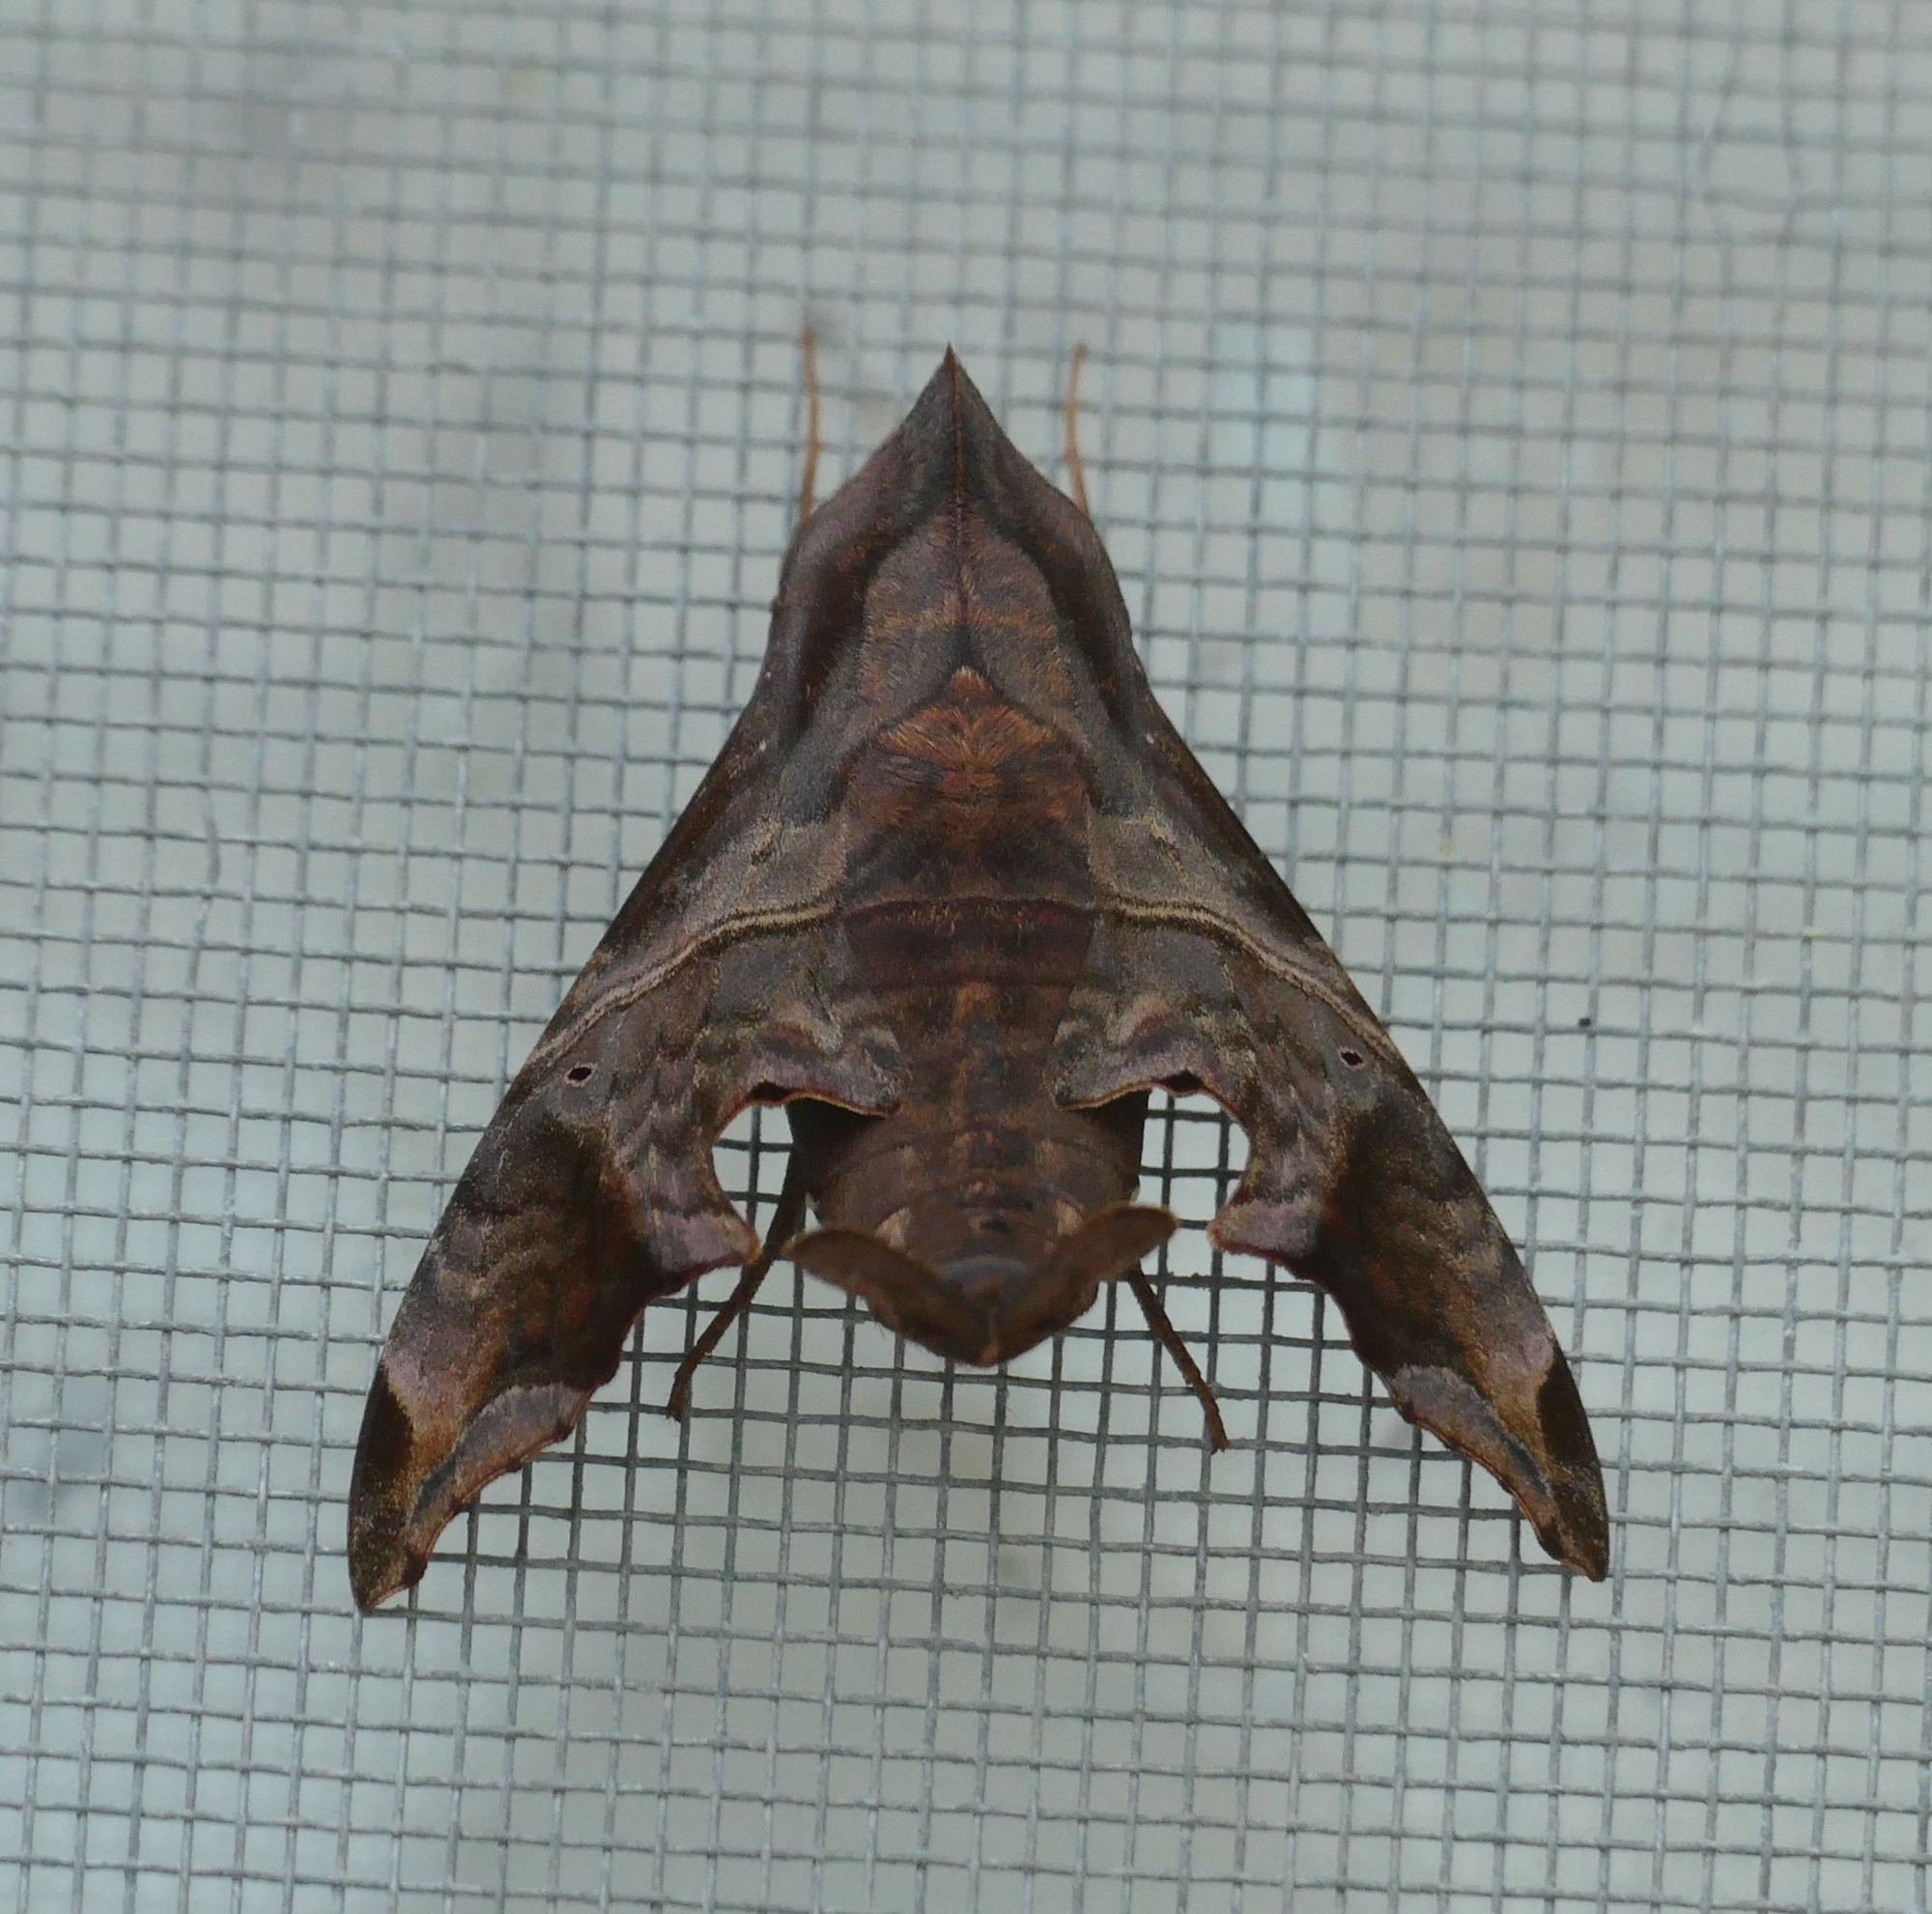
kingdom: Animalia
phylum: Arthropoda
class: Insecta
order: Lepidoptera
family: Sphingidae
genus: Enyo
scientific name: Enyo lugubris
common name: Mournful sphinx
